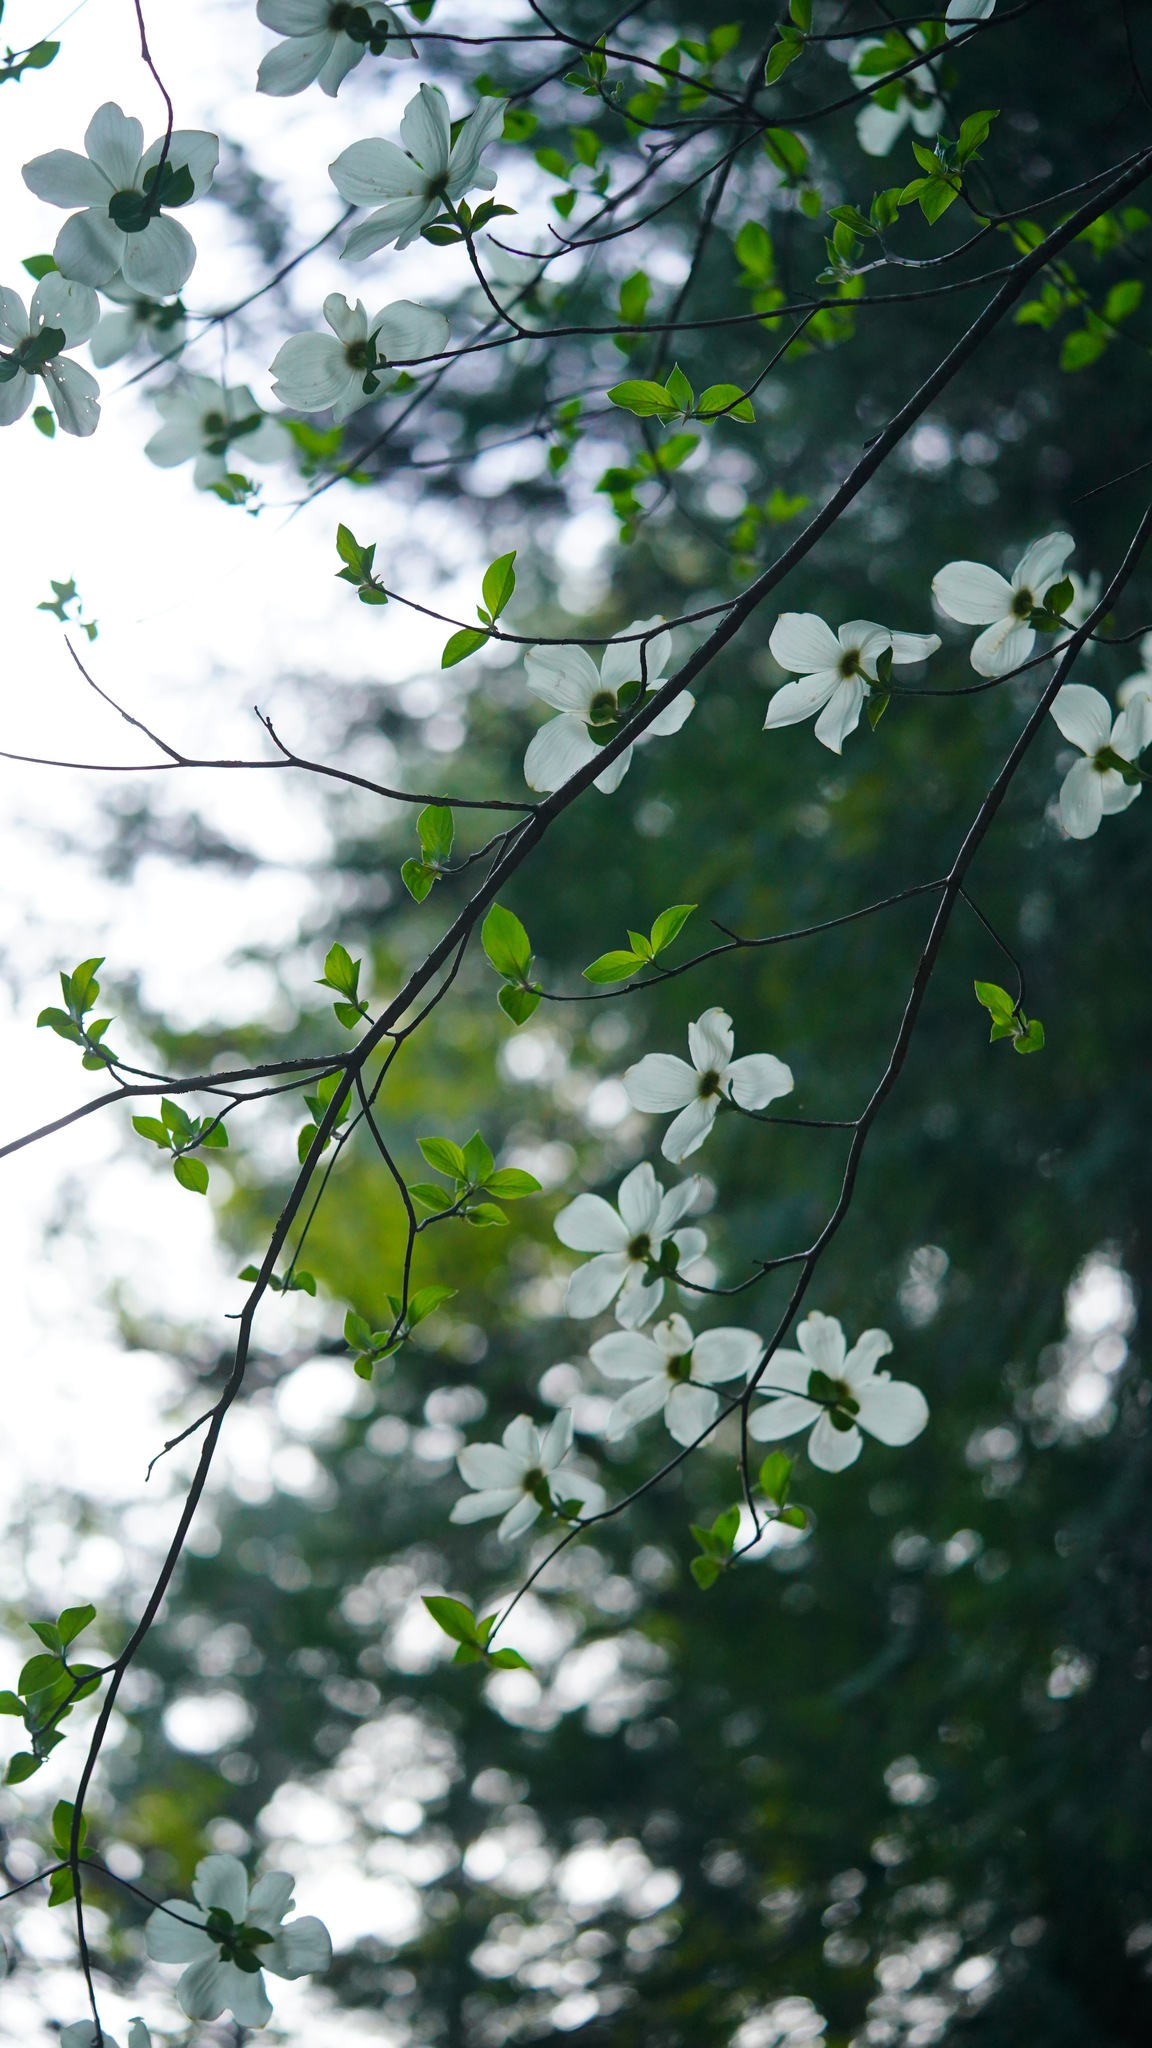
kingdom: Plantae
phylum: Tracheophyta
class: Magnoliopsida
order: Cornales
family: Cornaceae
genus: Cornus
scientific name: Cornus nuttallii
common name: Pacific dogwood
